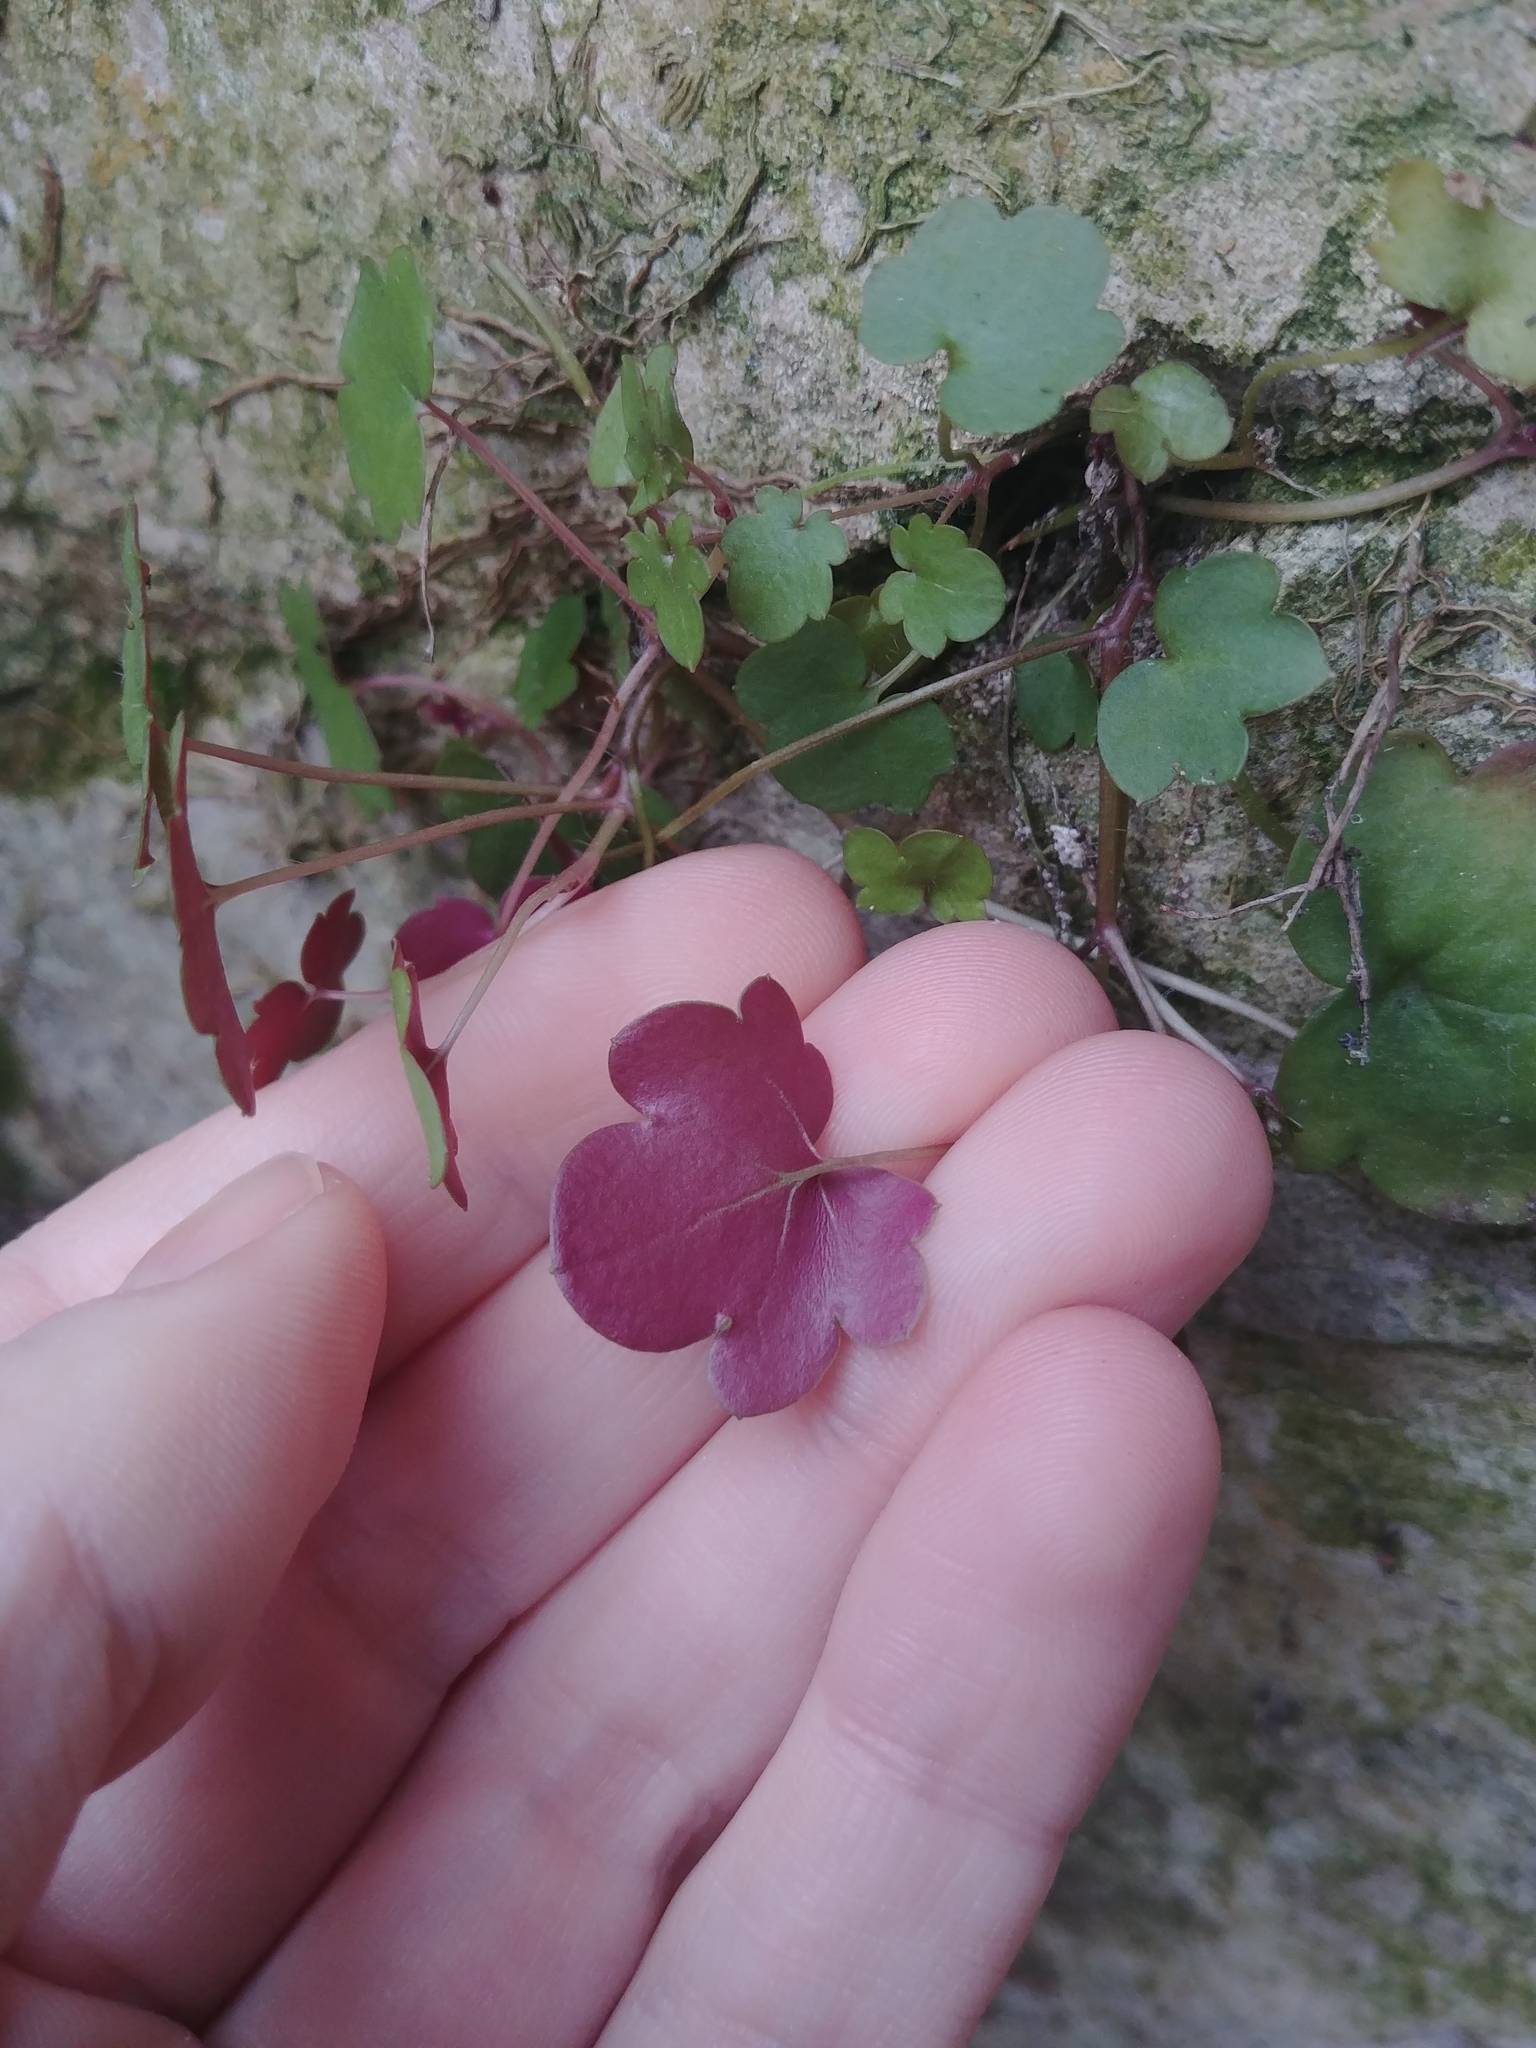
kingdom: Plantae
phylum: Tracheophyta
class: Magnoliopsida
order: Lamiales
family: Plantaginaceae
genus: Cymbalaria
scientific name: Cymbalaria muralis
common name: Ivy-leaved toadflax
